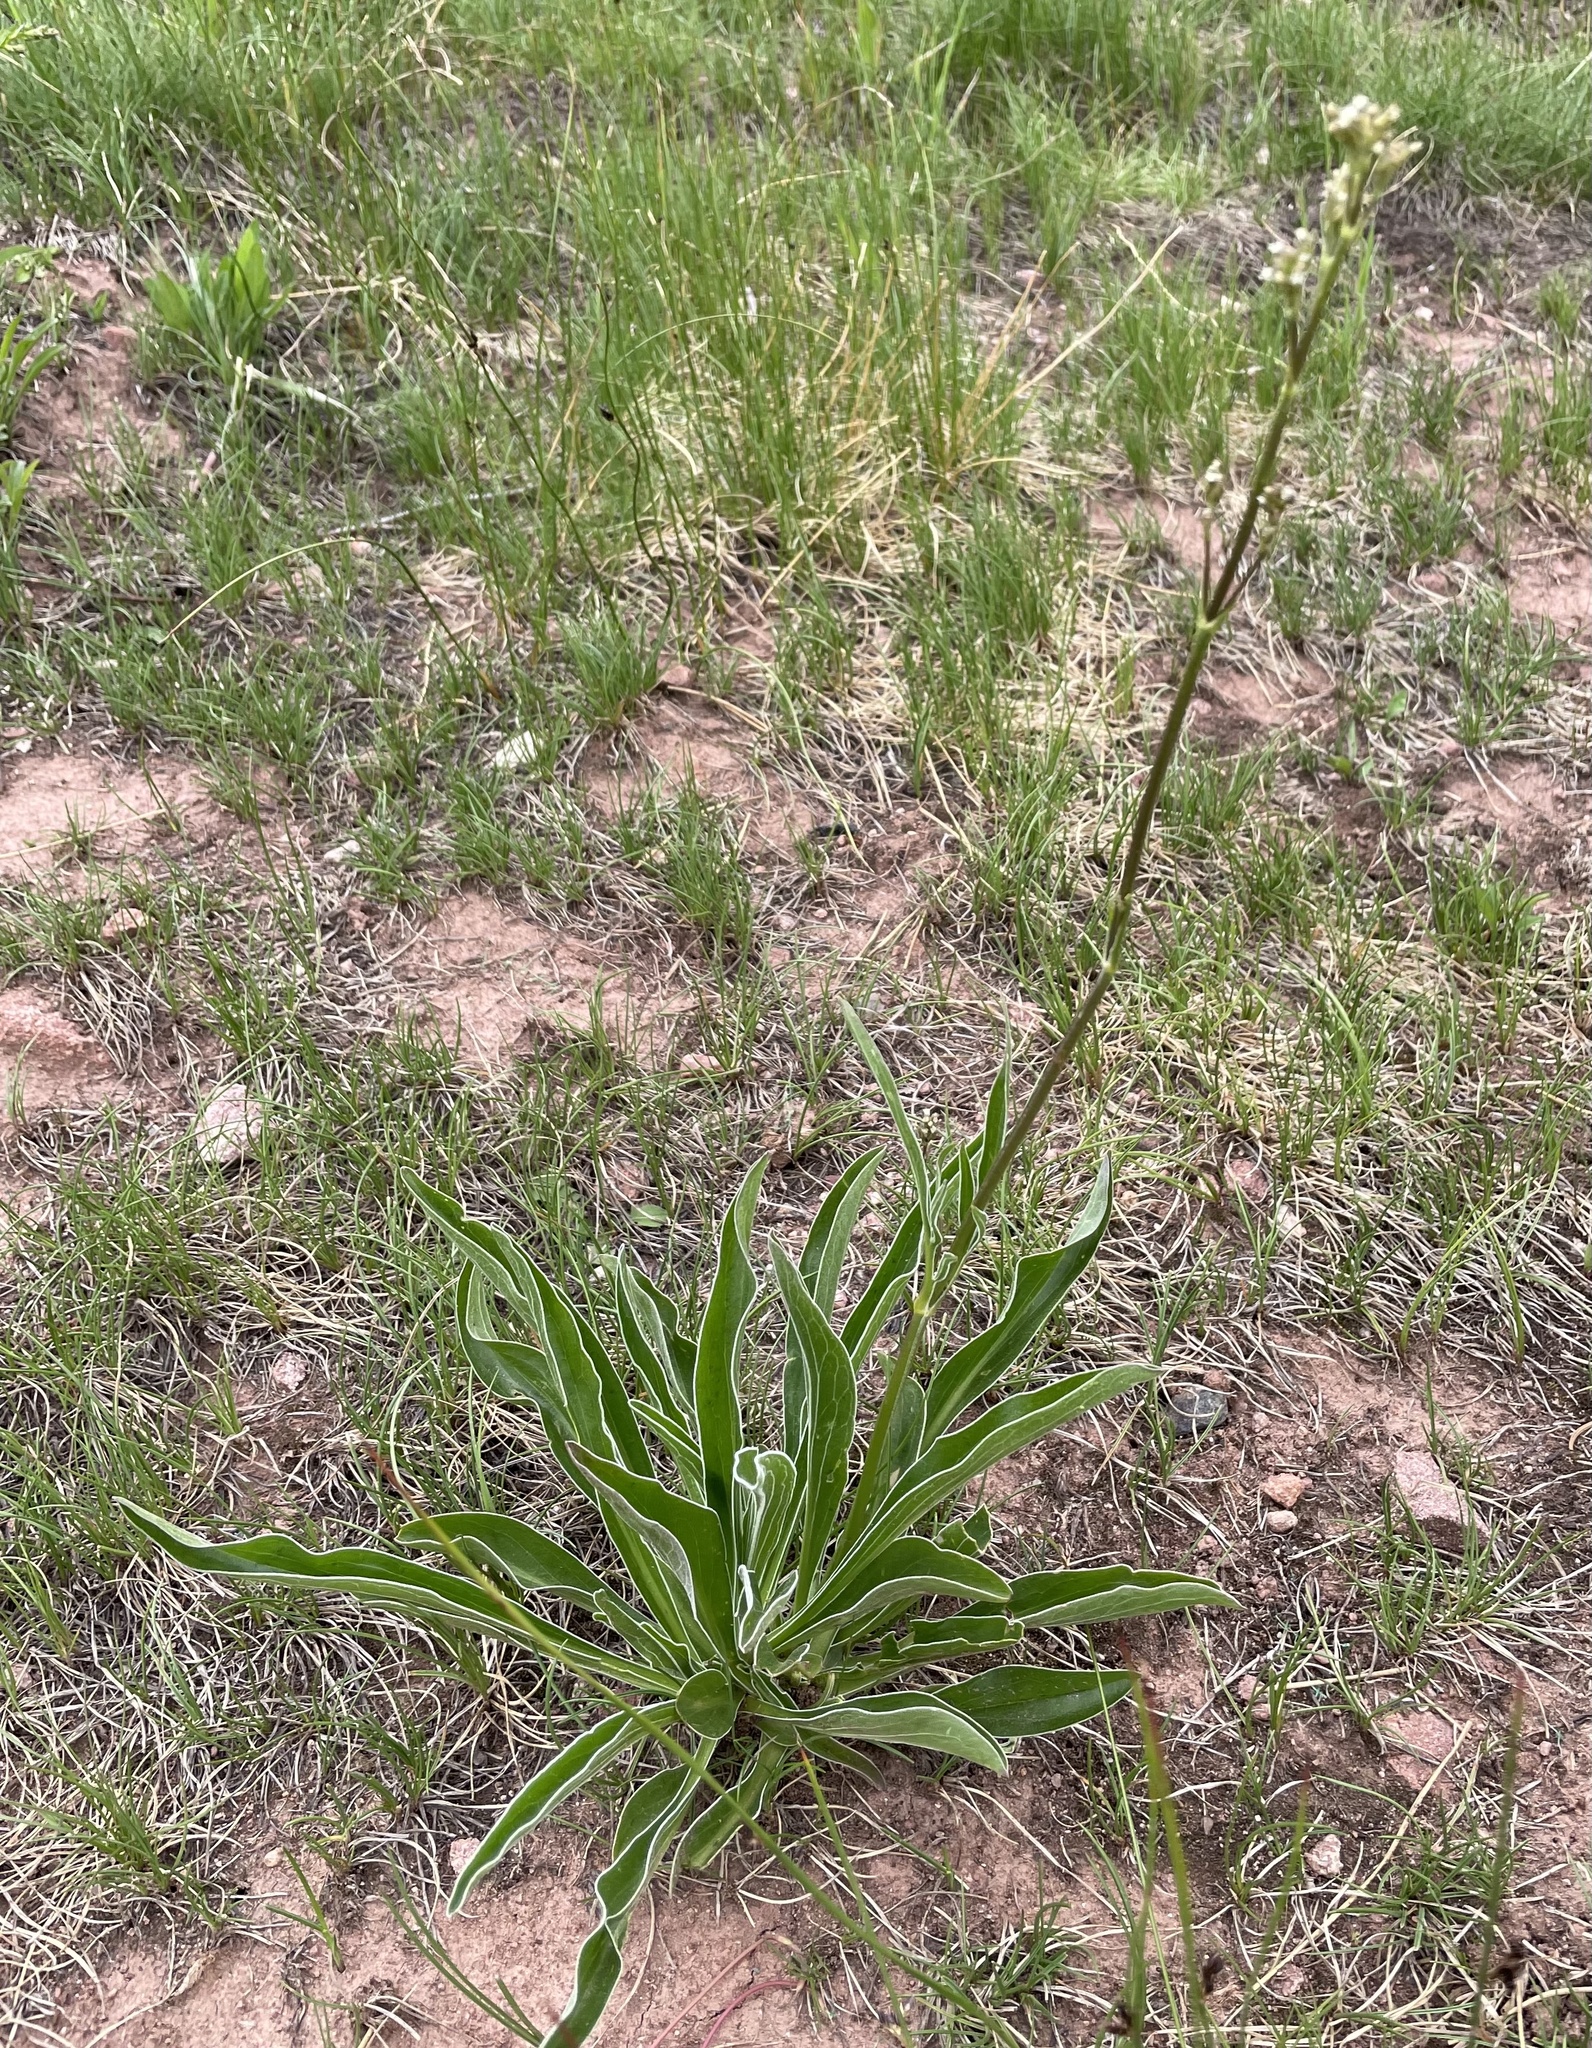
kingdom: Plantae
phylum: Tracheophyta
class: Magnoliopsida
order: Dipsacales
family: Caprifoliaceae
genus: Valeriana
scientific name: Valeriana edulis
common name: Taproot valerian
